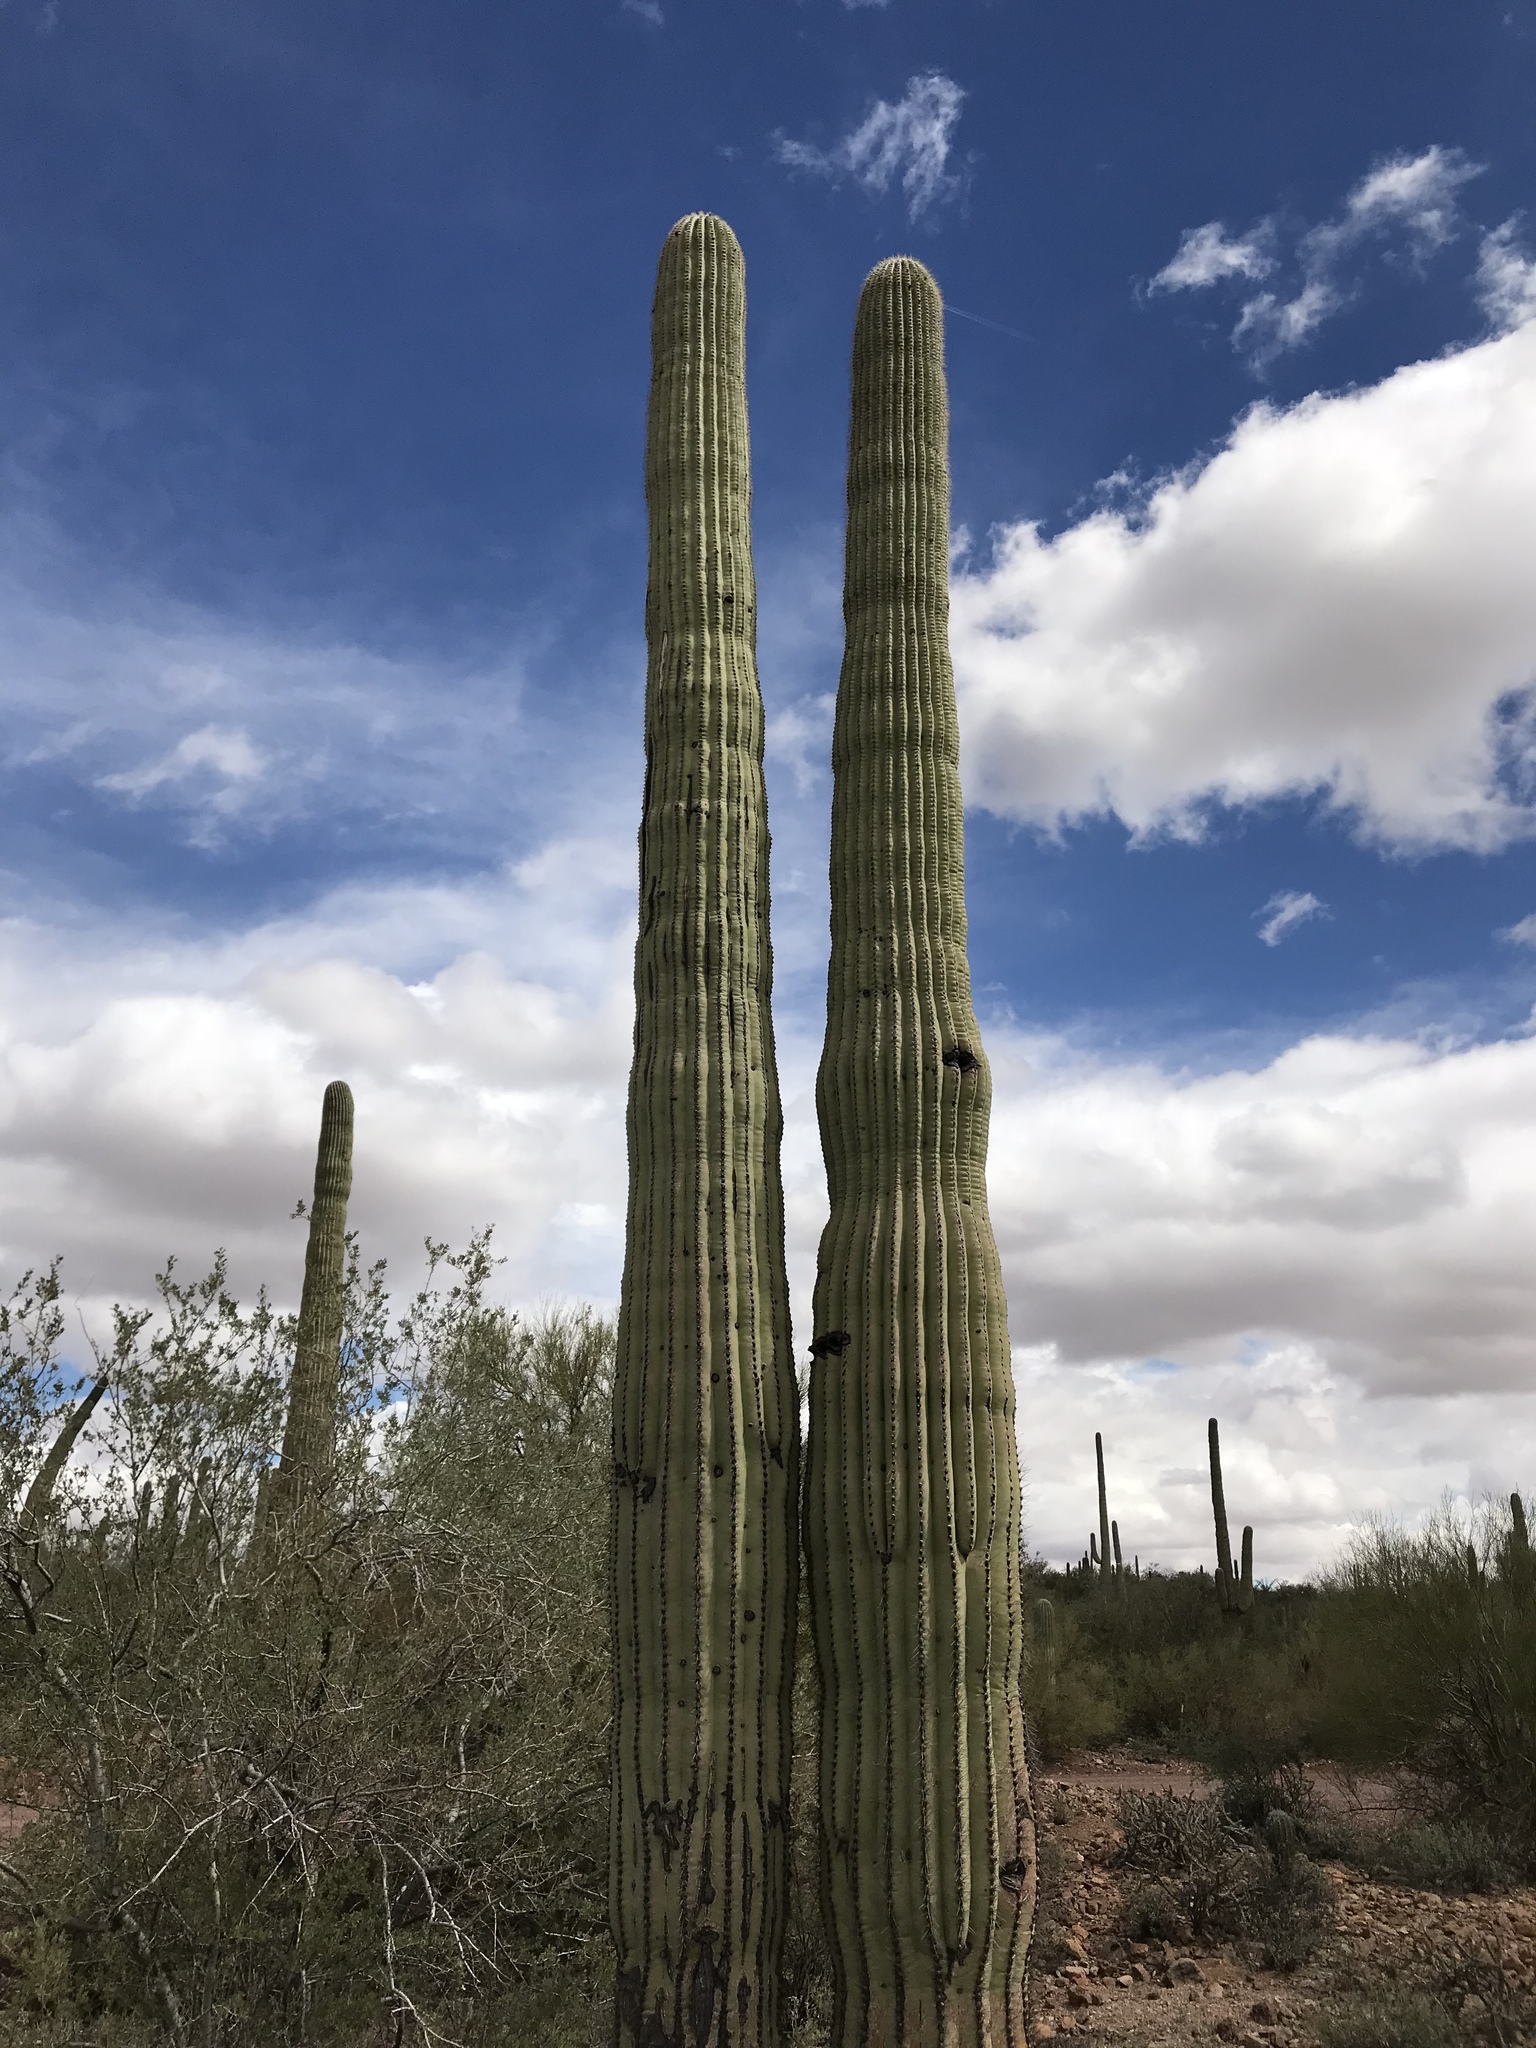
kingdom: Plantae
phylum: Tracheophyta
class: Magnoliopsida
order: Caryophyllales
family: Cactaceae
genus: Carnegiea
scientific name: Carnegiea gigantea
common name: Saguaro
